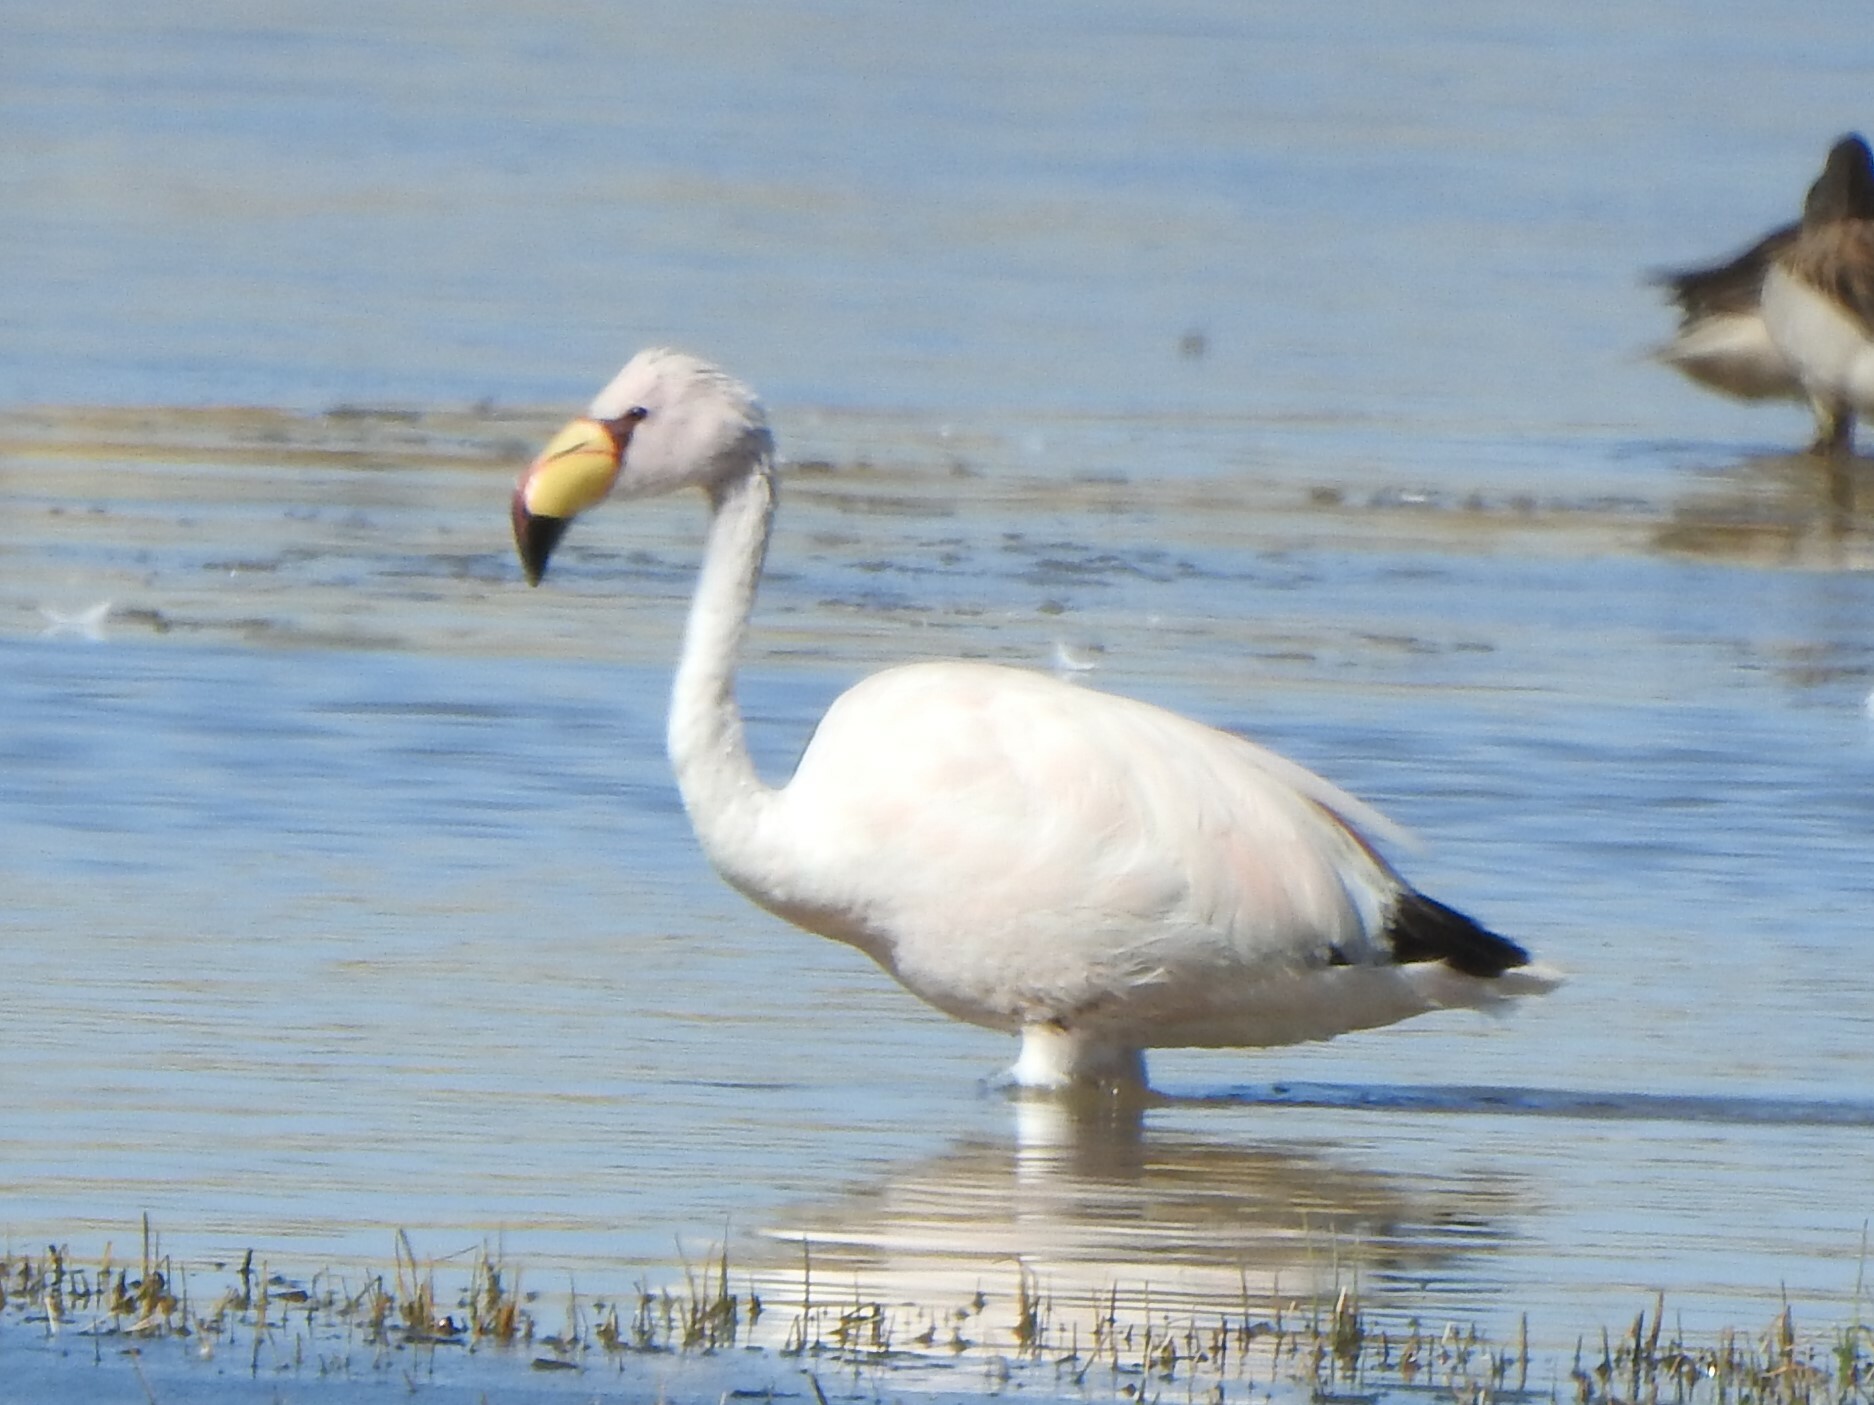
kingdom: Animalia
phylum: Chordata
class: Aves
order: Phoenicopteriformes
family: Phoenicopteridae
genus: Phoenicoparrus
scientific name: Phoenicoparrus jamesi
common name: James's flamingo
